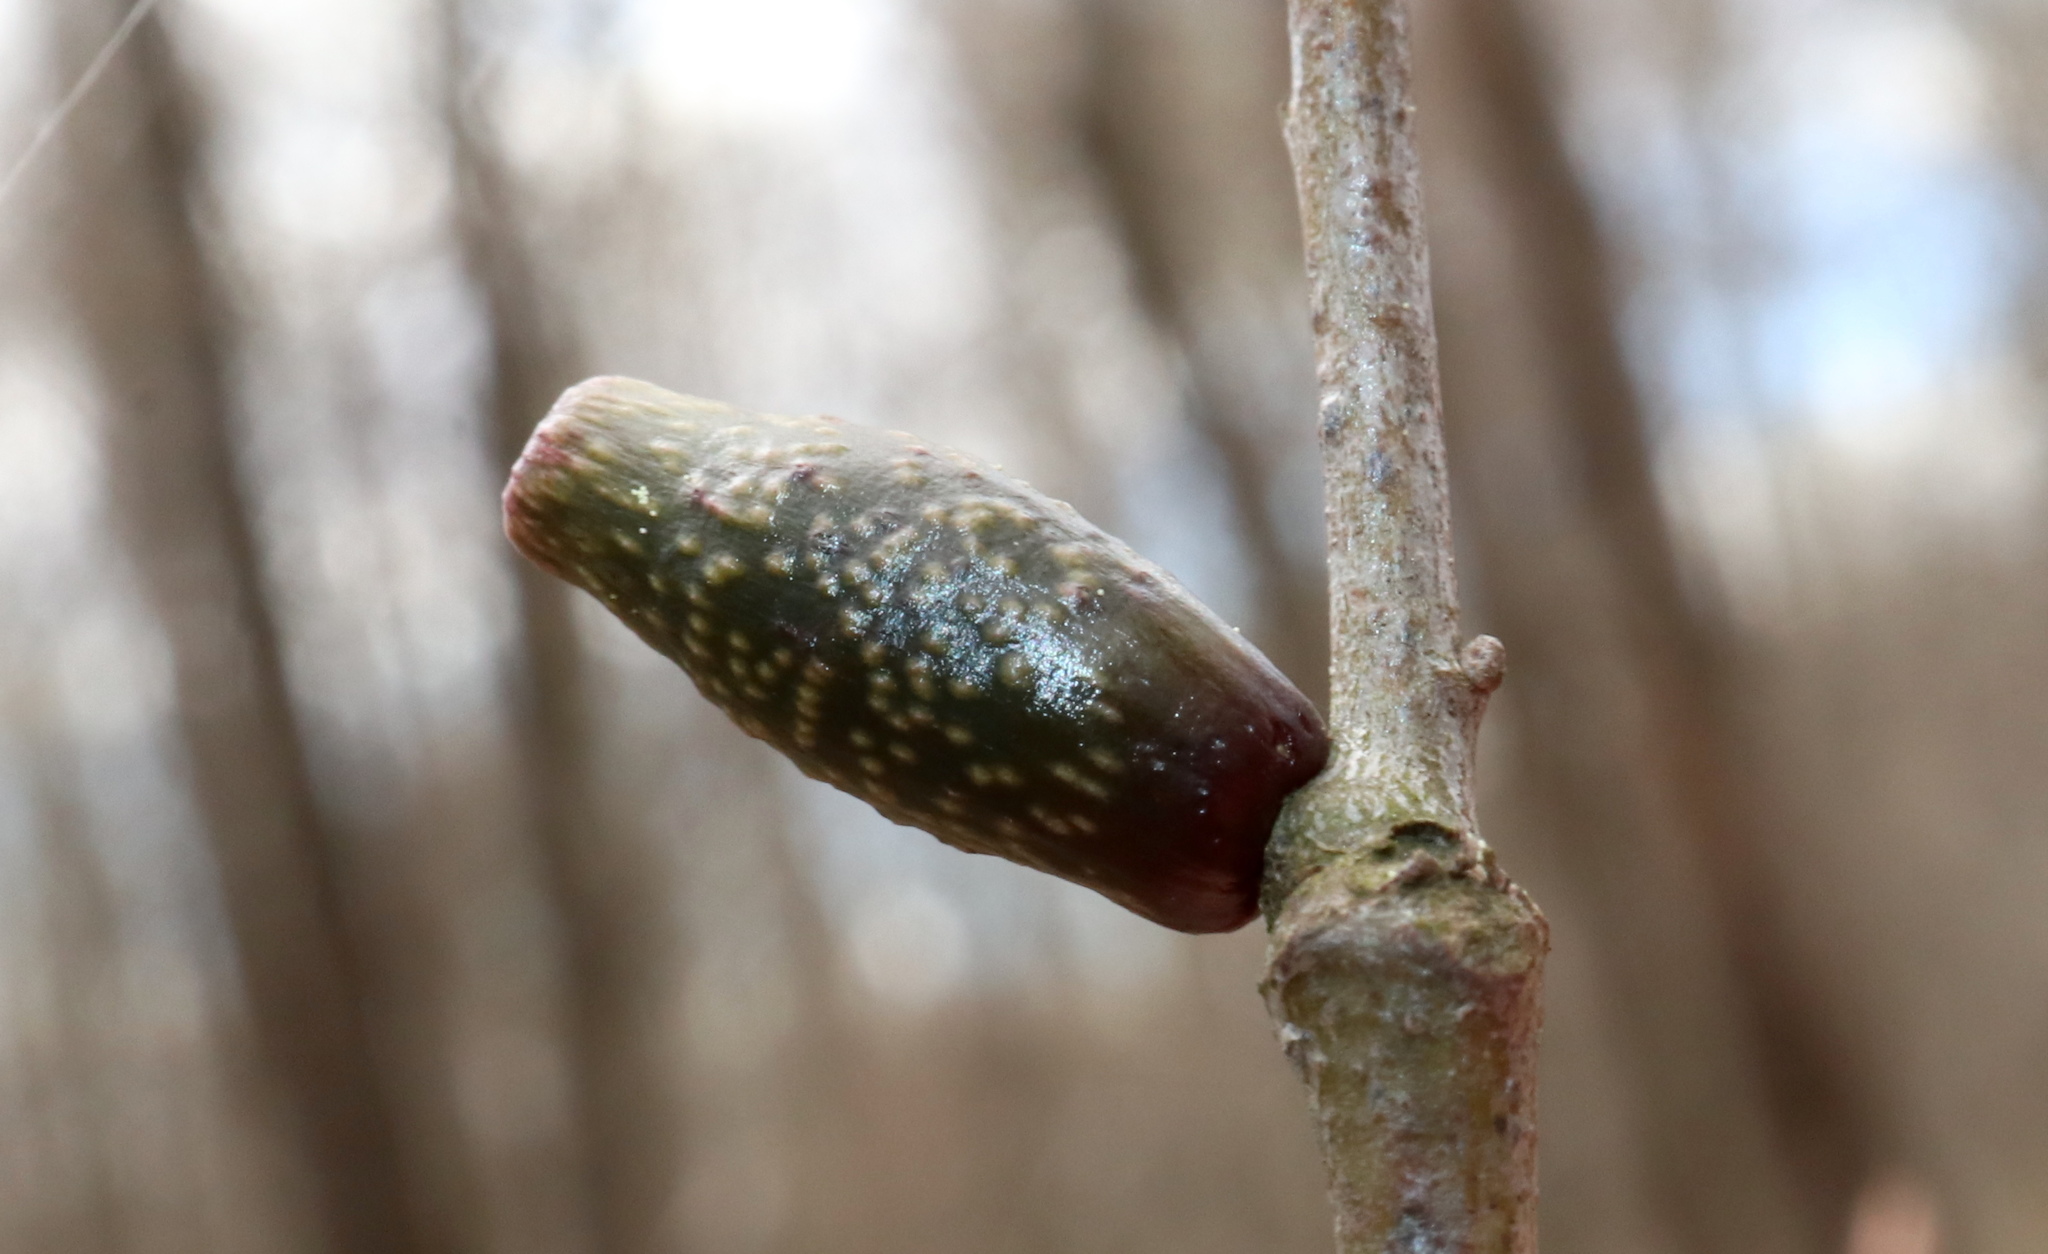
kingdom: Animalia
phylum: Arthropoda
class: Insecta
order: Hymenoptera
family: Cynipidae
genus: Amphibolips
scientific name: Amphibolips
